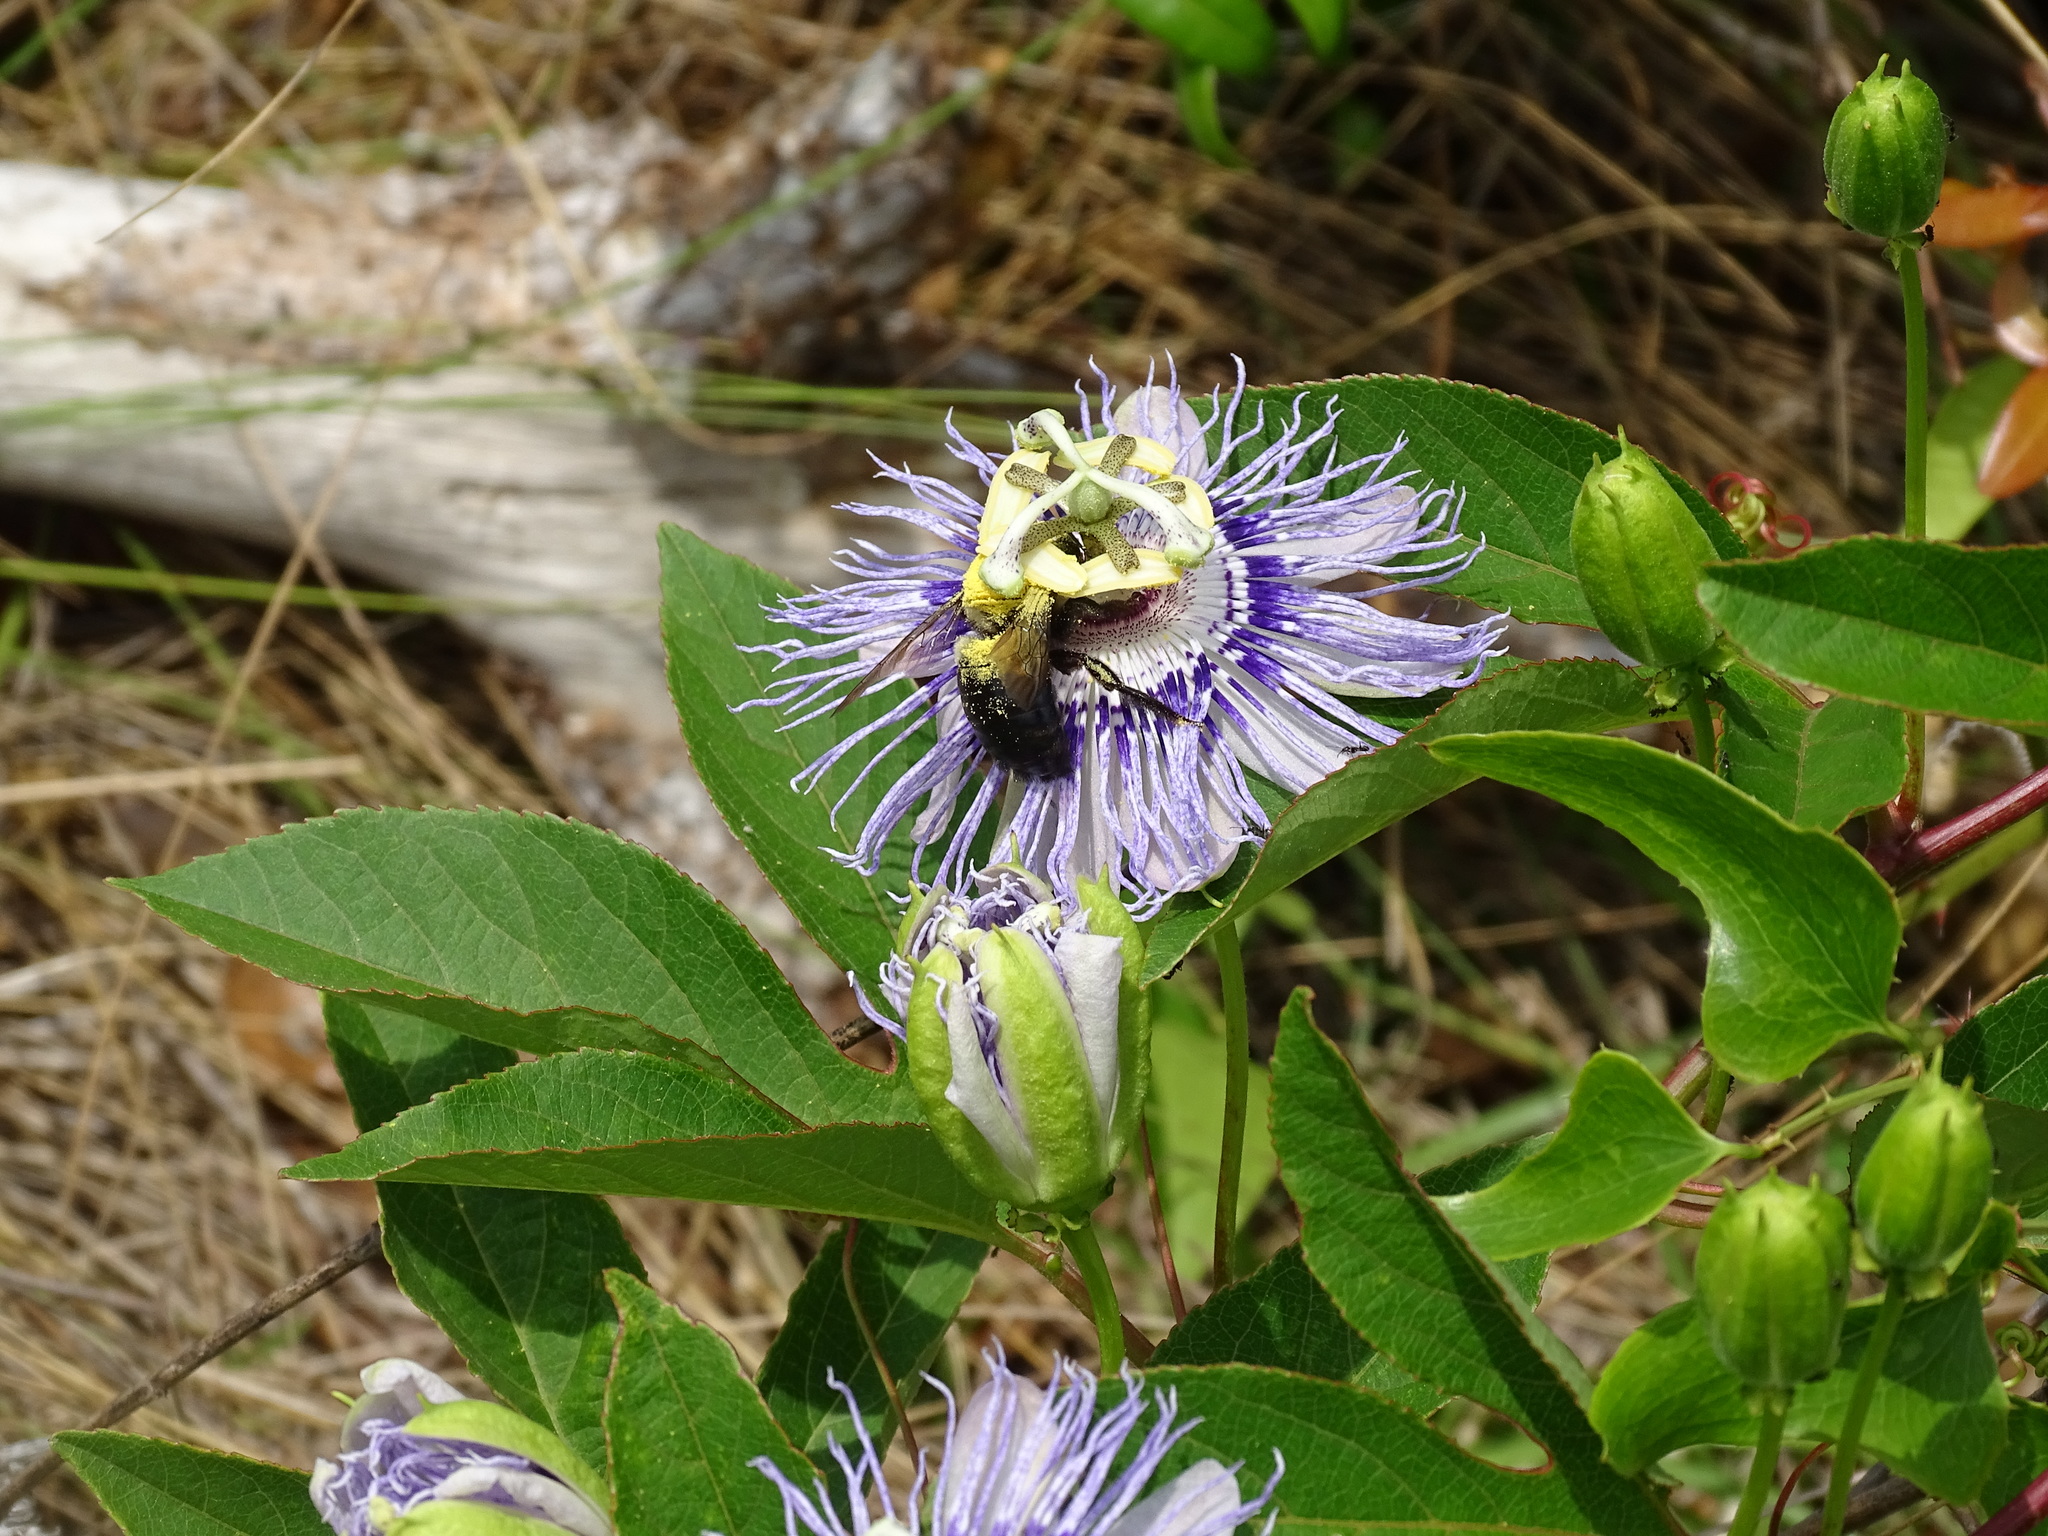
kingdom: Animalia
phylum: Arthropoda
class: Insecta
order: Hymenoptera
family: Apidae
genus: Xylocopa
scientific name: Xylocopa virginica
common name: Carpenter bee
